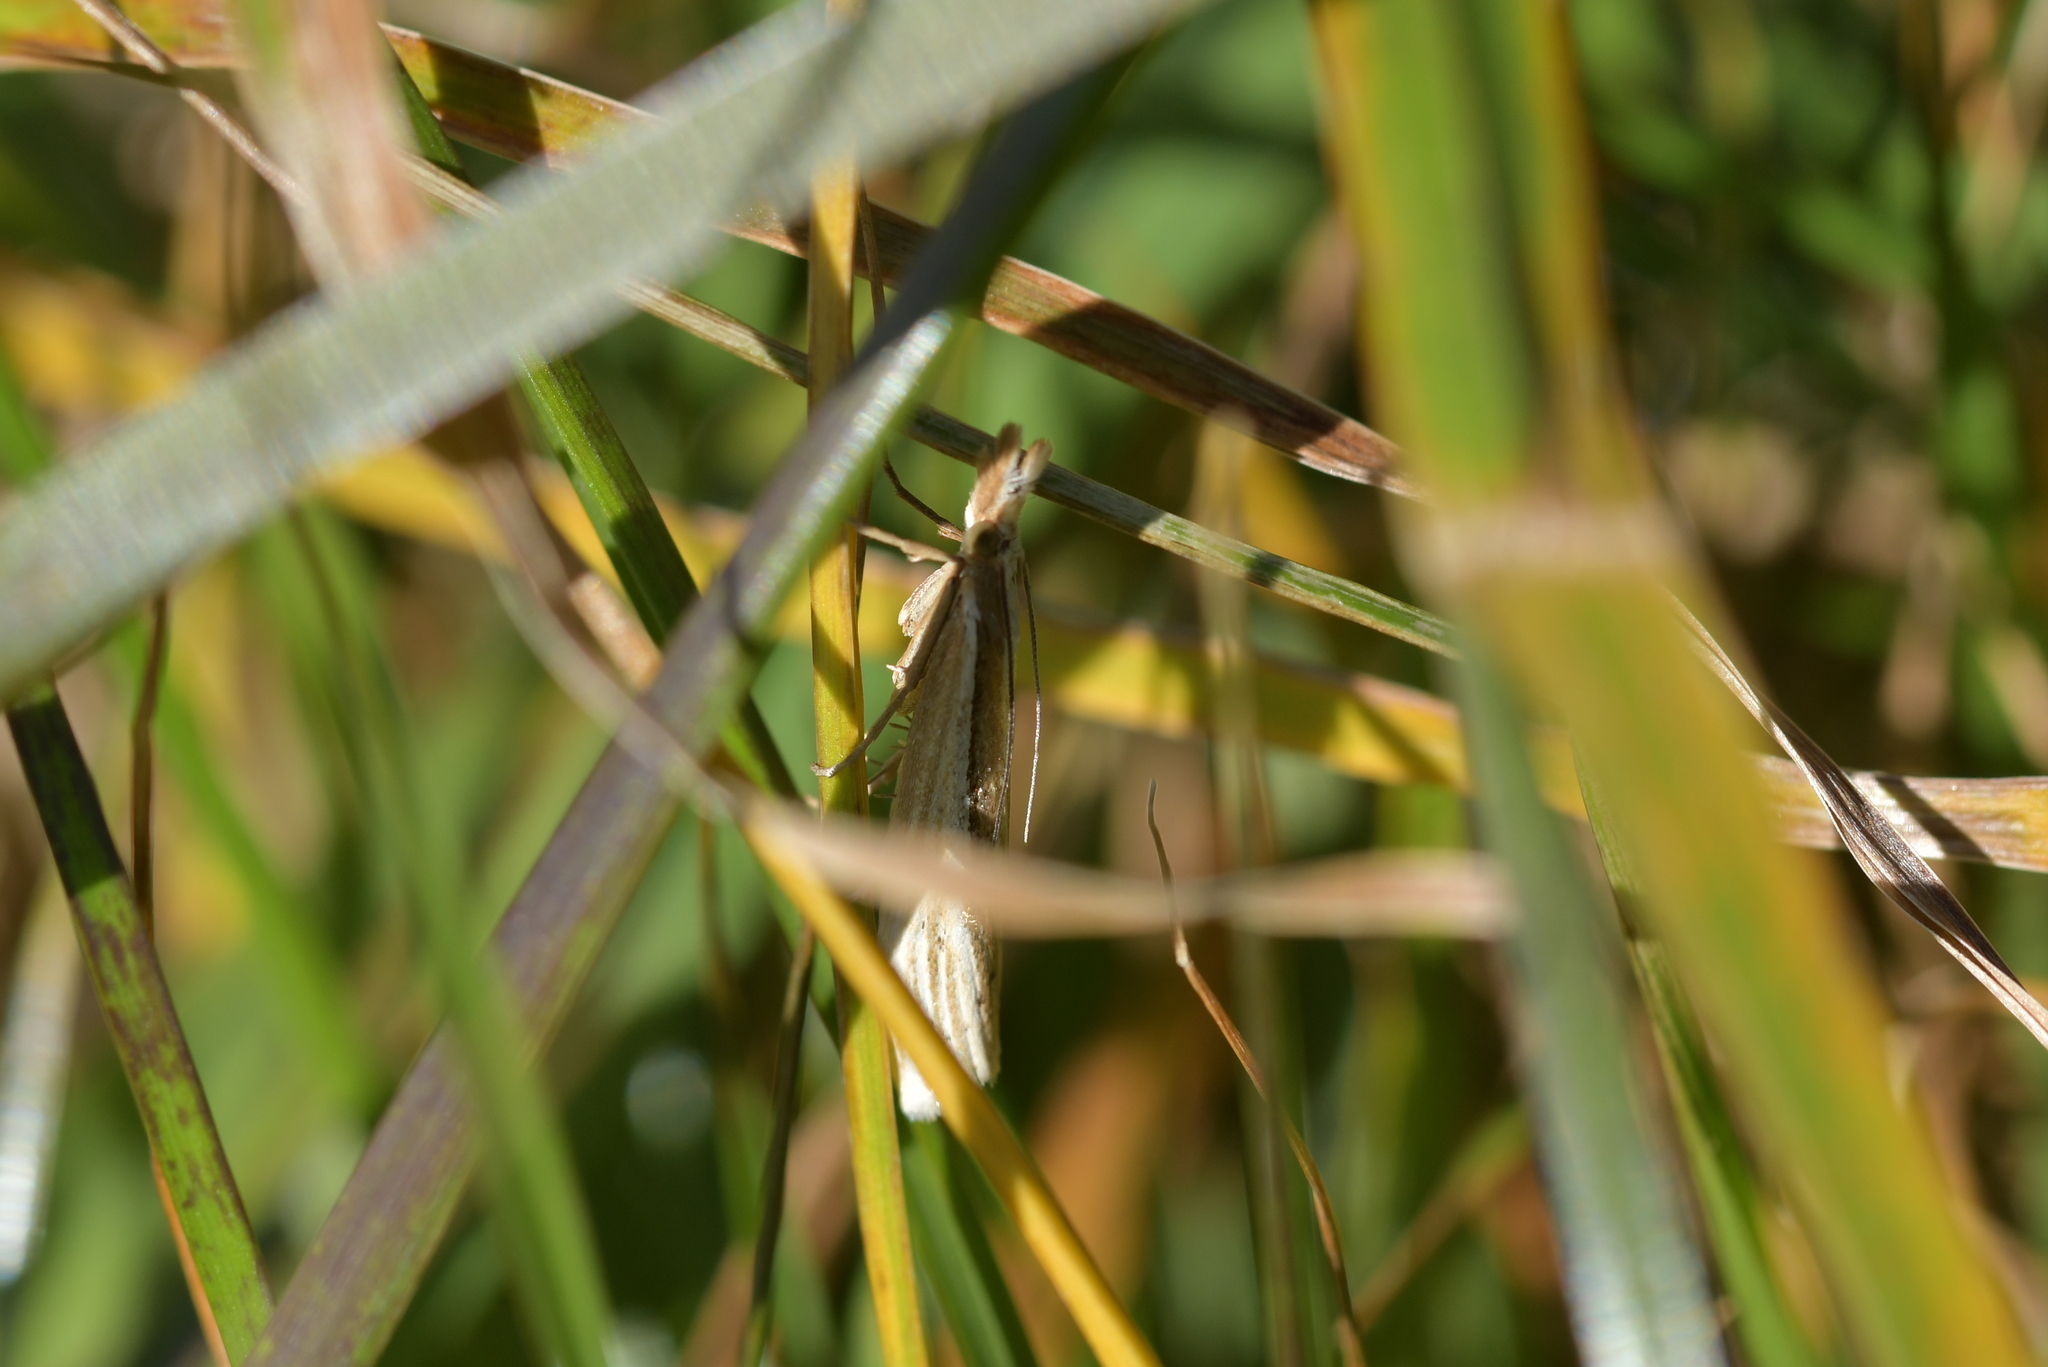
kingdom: Animalia
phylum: Arthropoda
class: Insecta
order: Lepidoptera
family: Crambidae
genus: Orocrambus
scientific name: Orocrambus ramosellus
